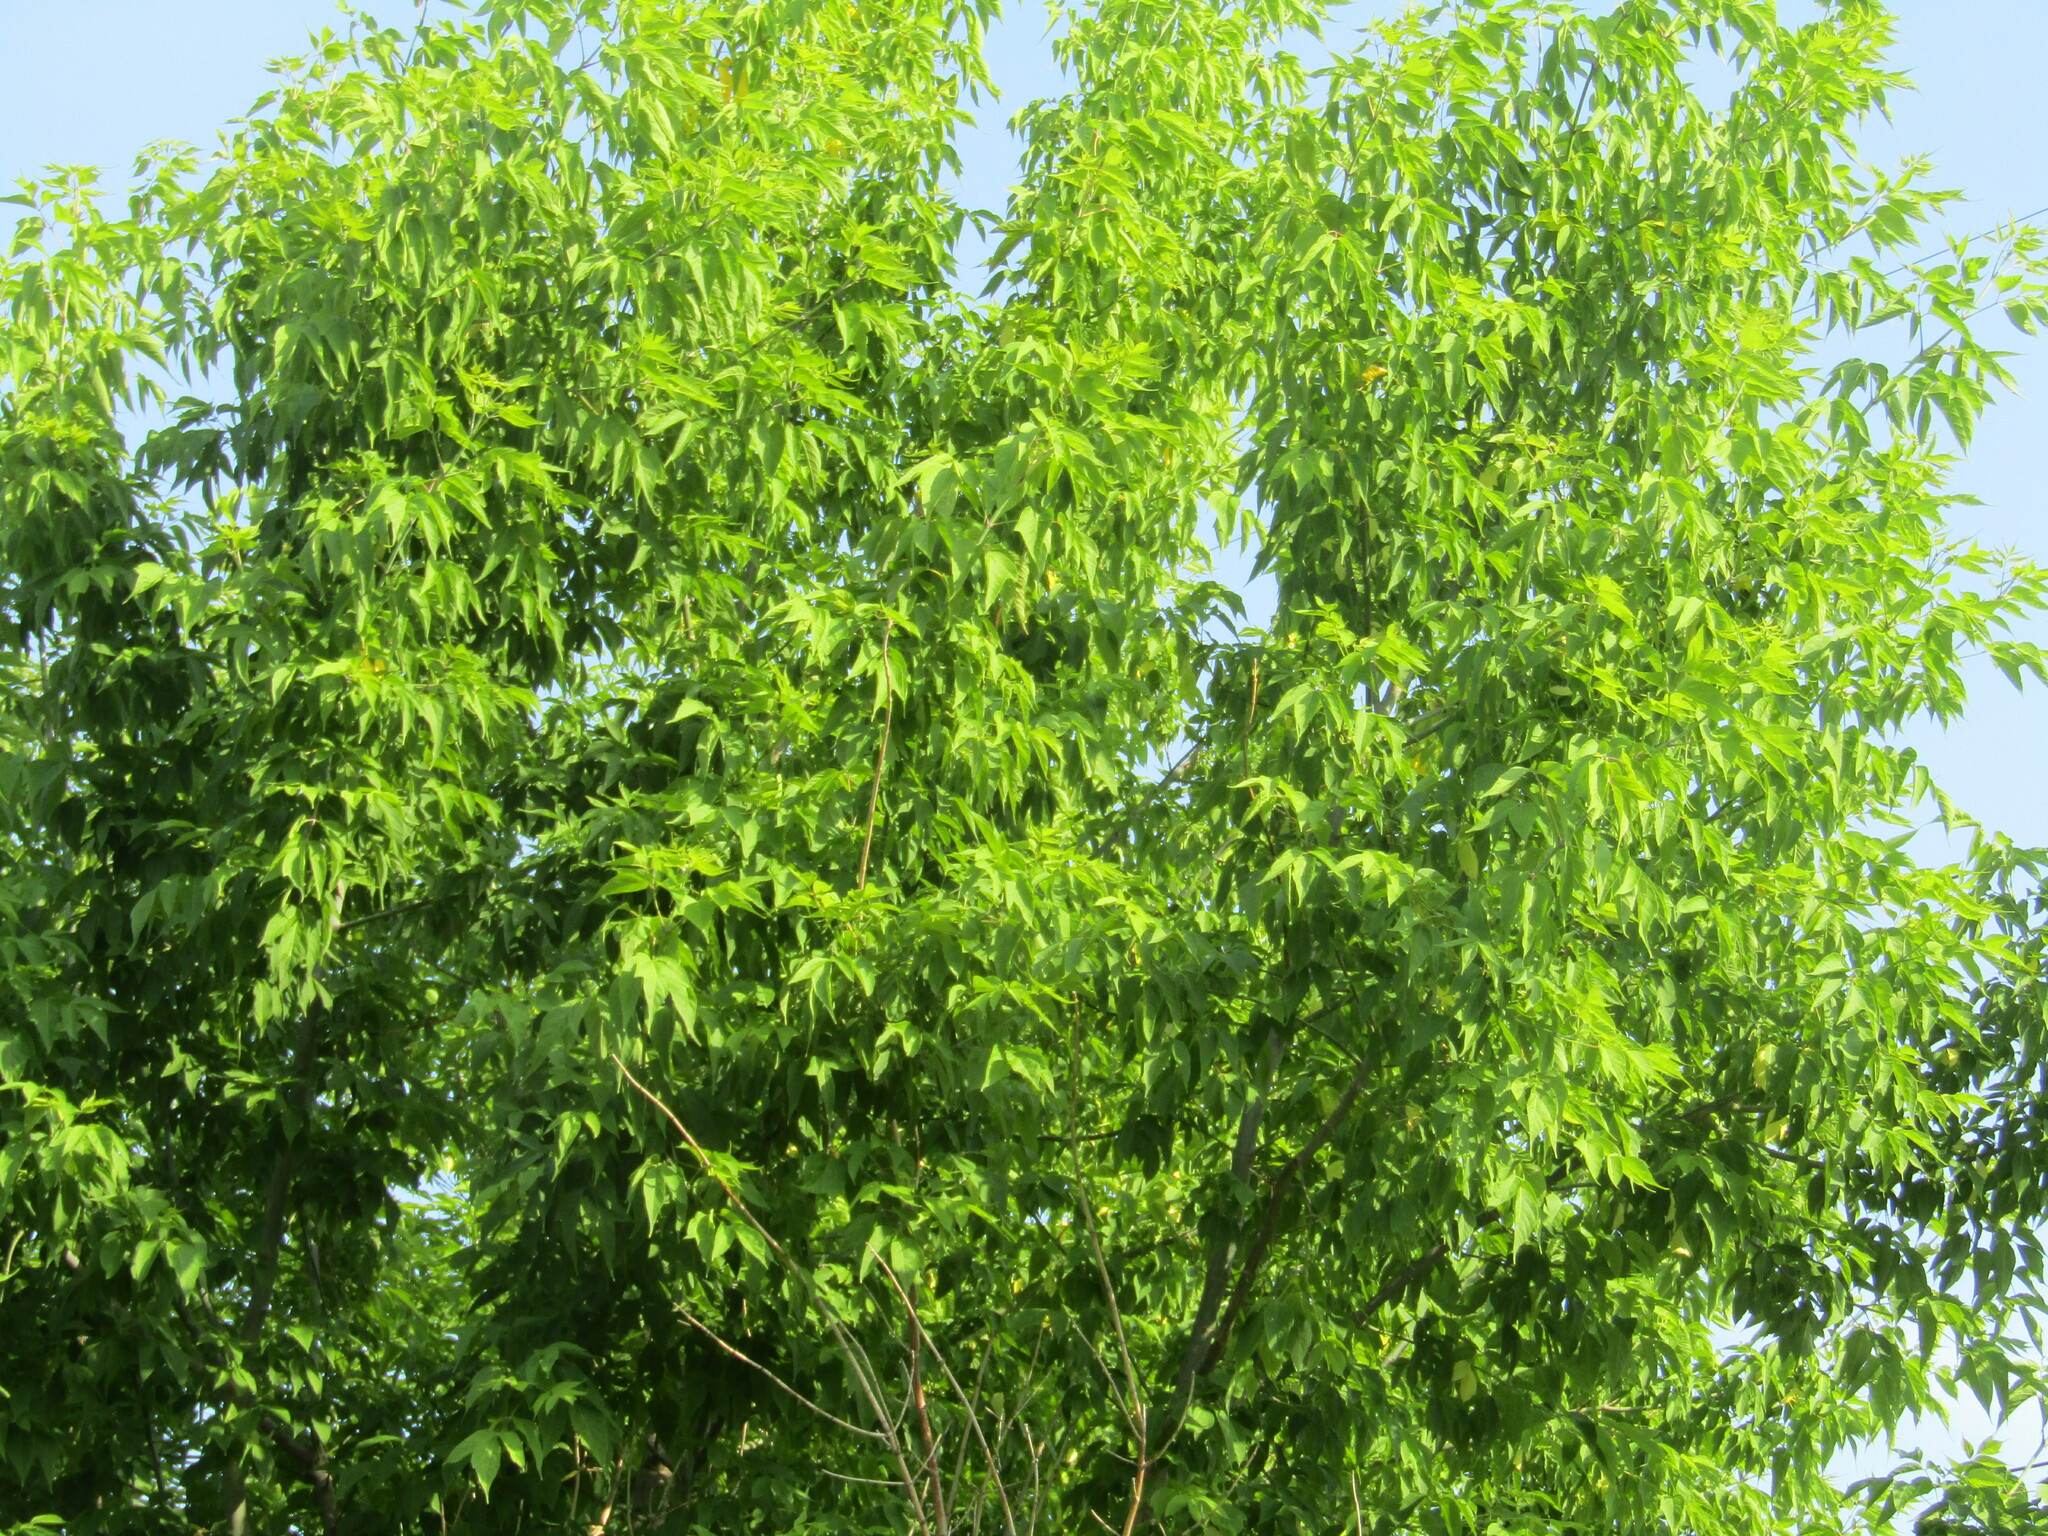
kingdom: Plantae
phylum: Tracheophyta
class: Magnoliopsida
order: Sapindales
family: Sapindaceae
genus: Acer
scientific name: Acer negundo
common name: Ashleaf maple
